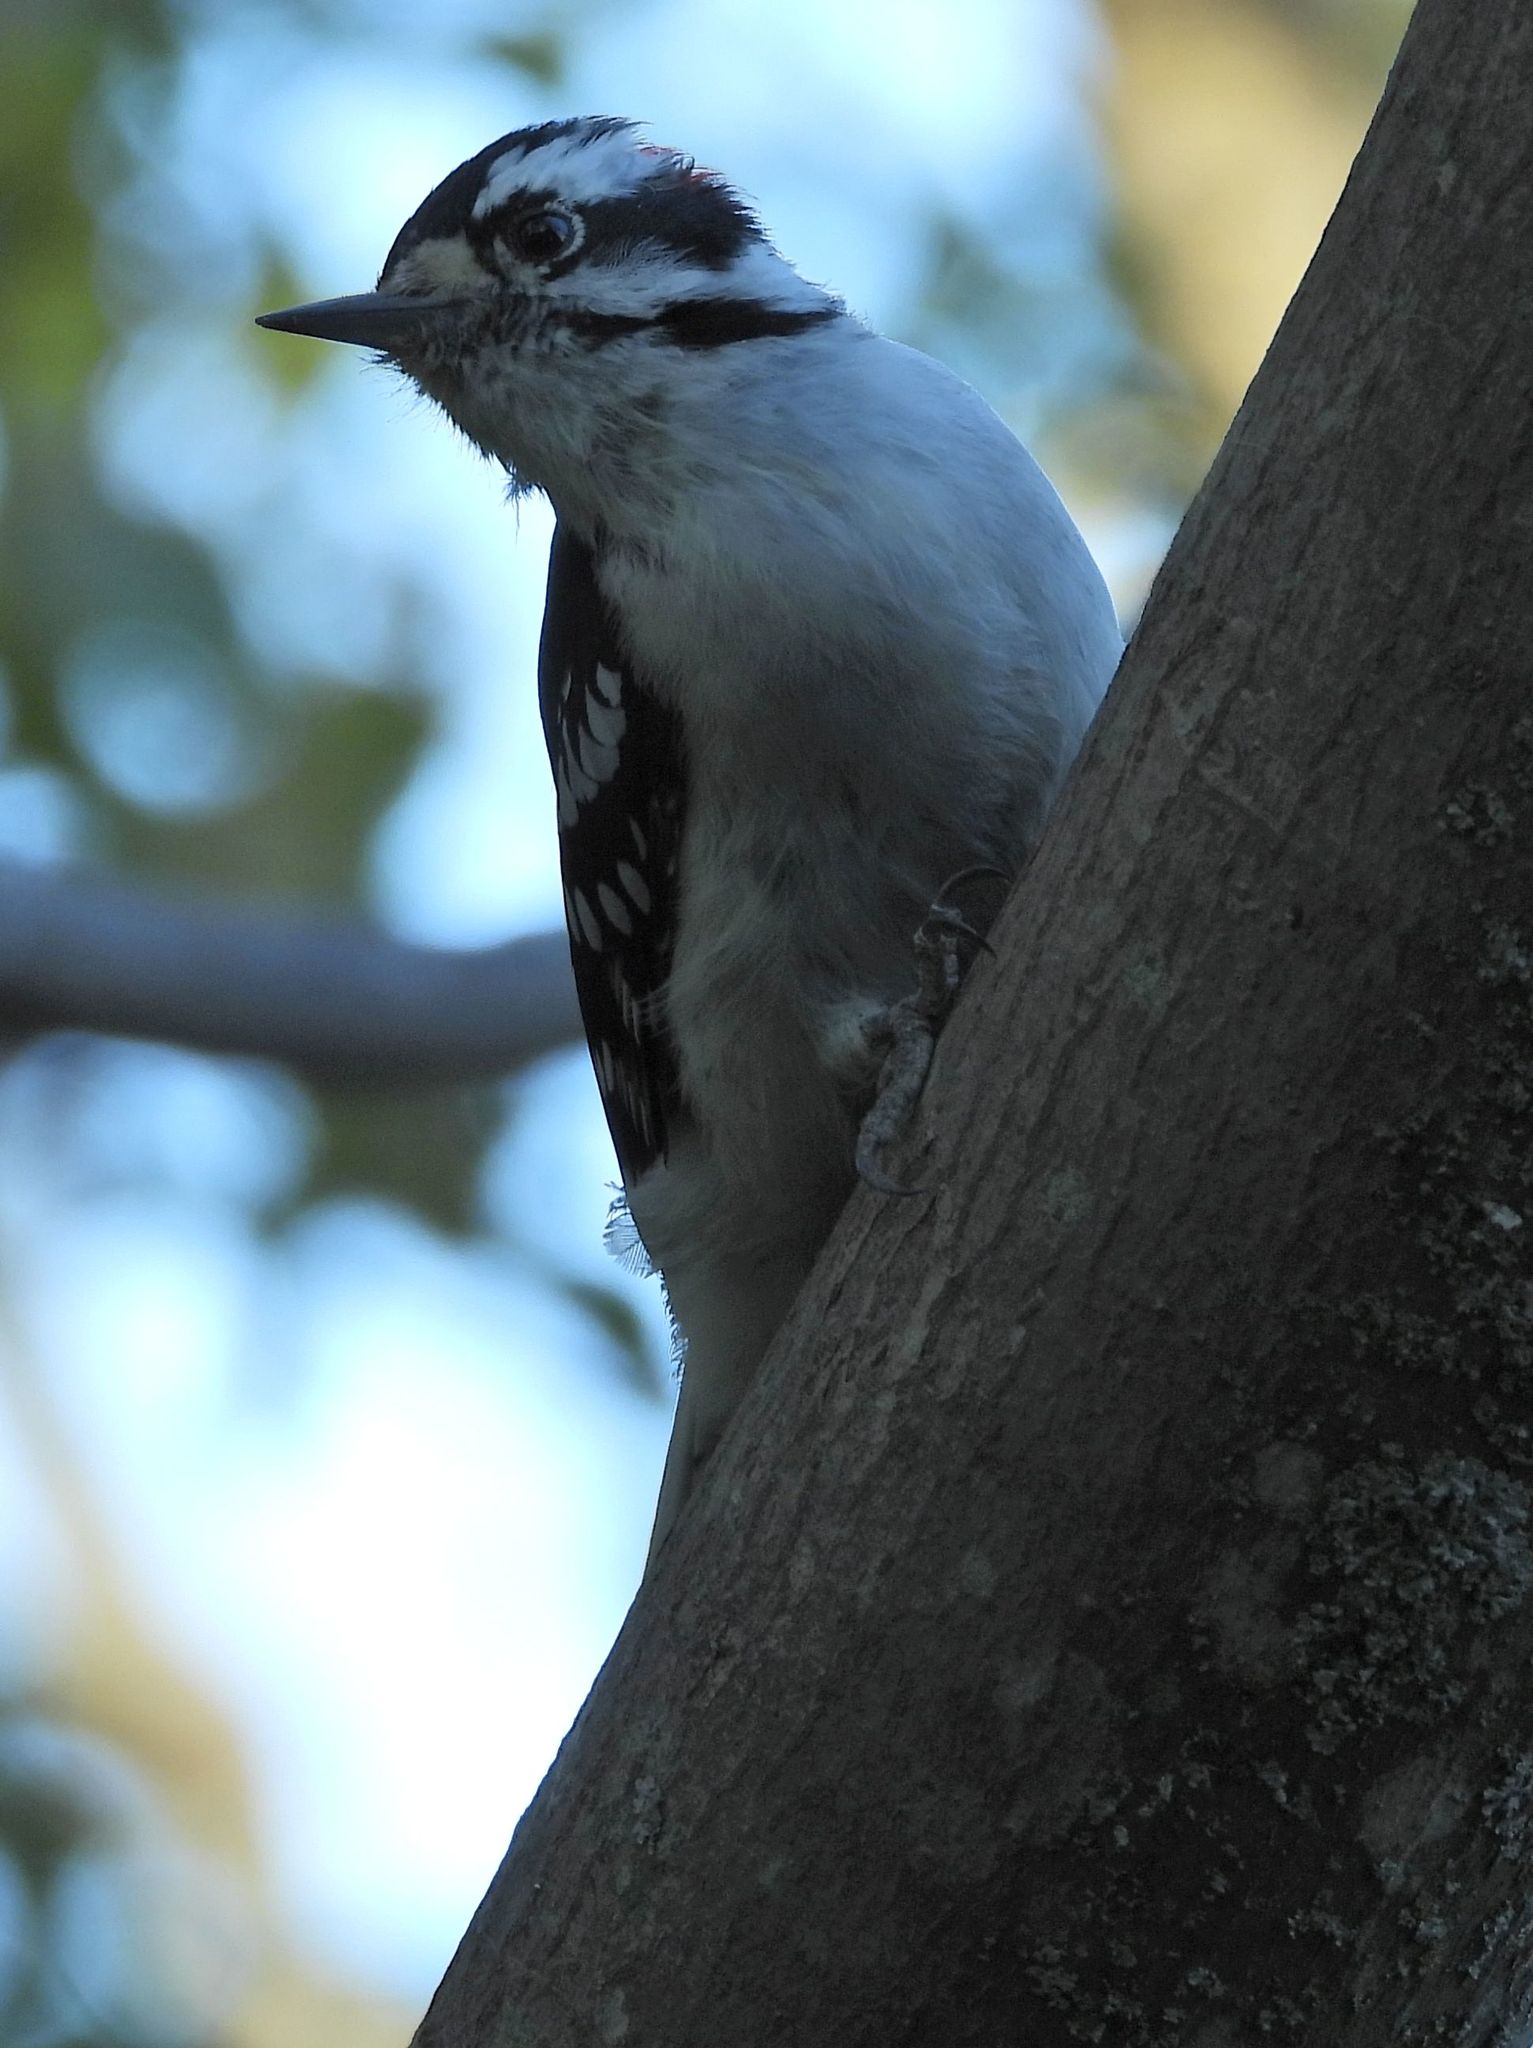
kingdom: Animalia
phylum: Chordata
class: Aves
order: Piciformes
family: Picidae
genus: Dryobates
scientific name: Dryobates pubescens
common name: Downy woodpecker
